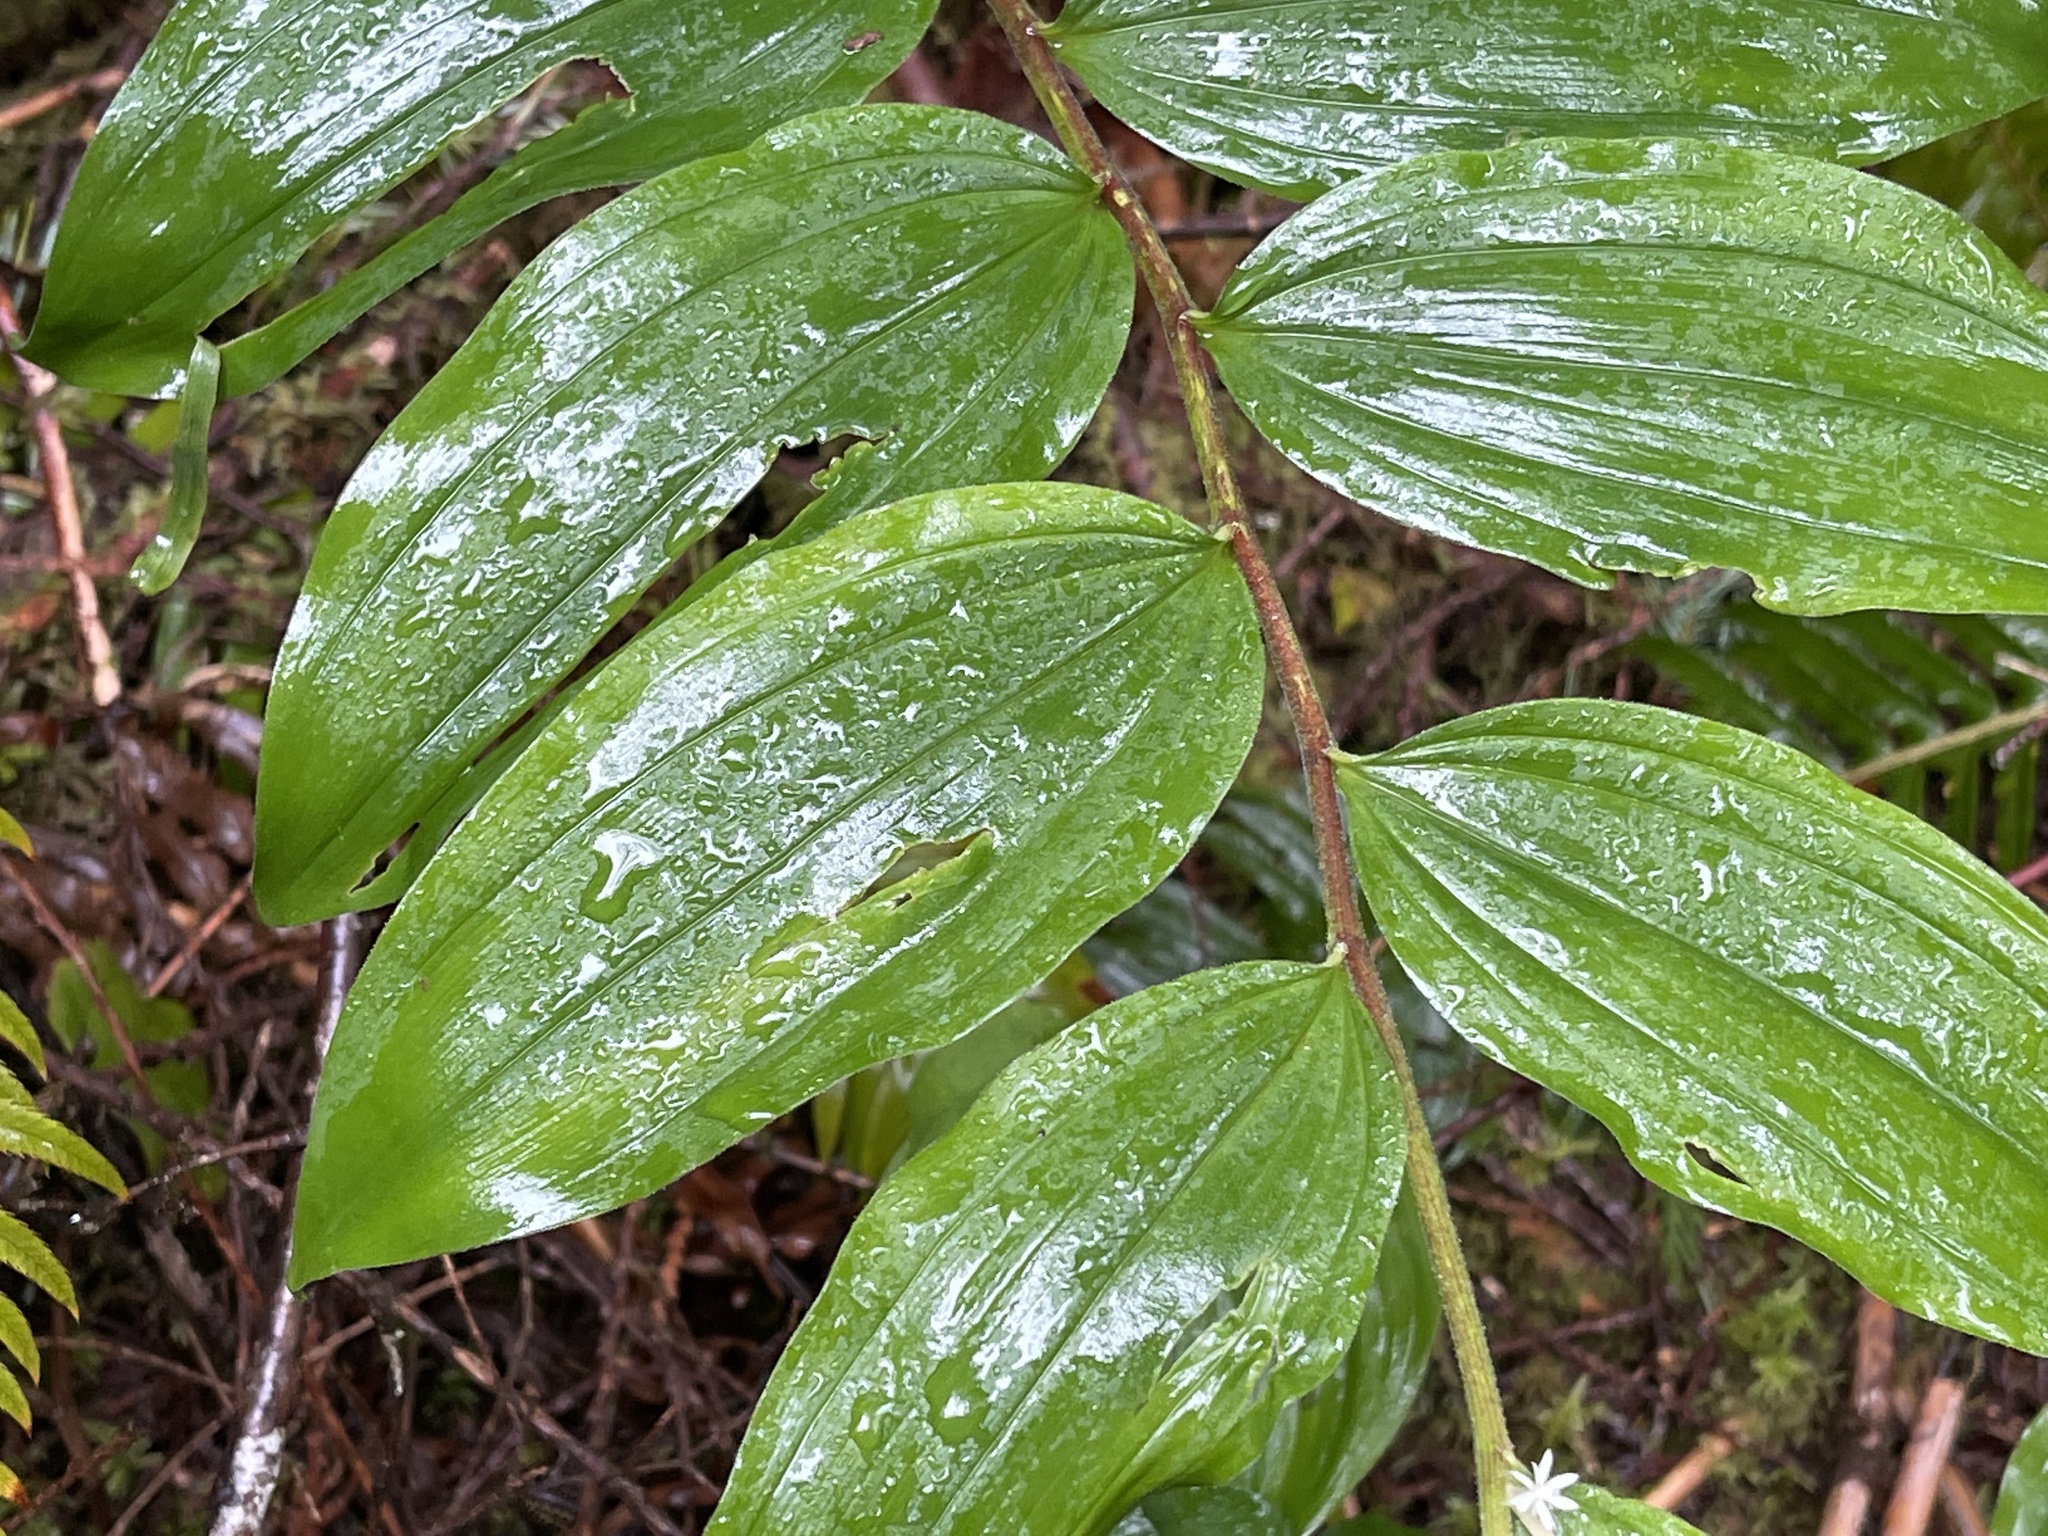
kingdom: Plantae
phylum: Tracheophyta
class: Liliopsida
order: Asparagales
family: Asparagaceae
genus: Maianthemum
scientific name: Maianthemum racemosum
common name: False spikenard
